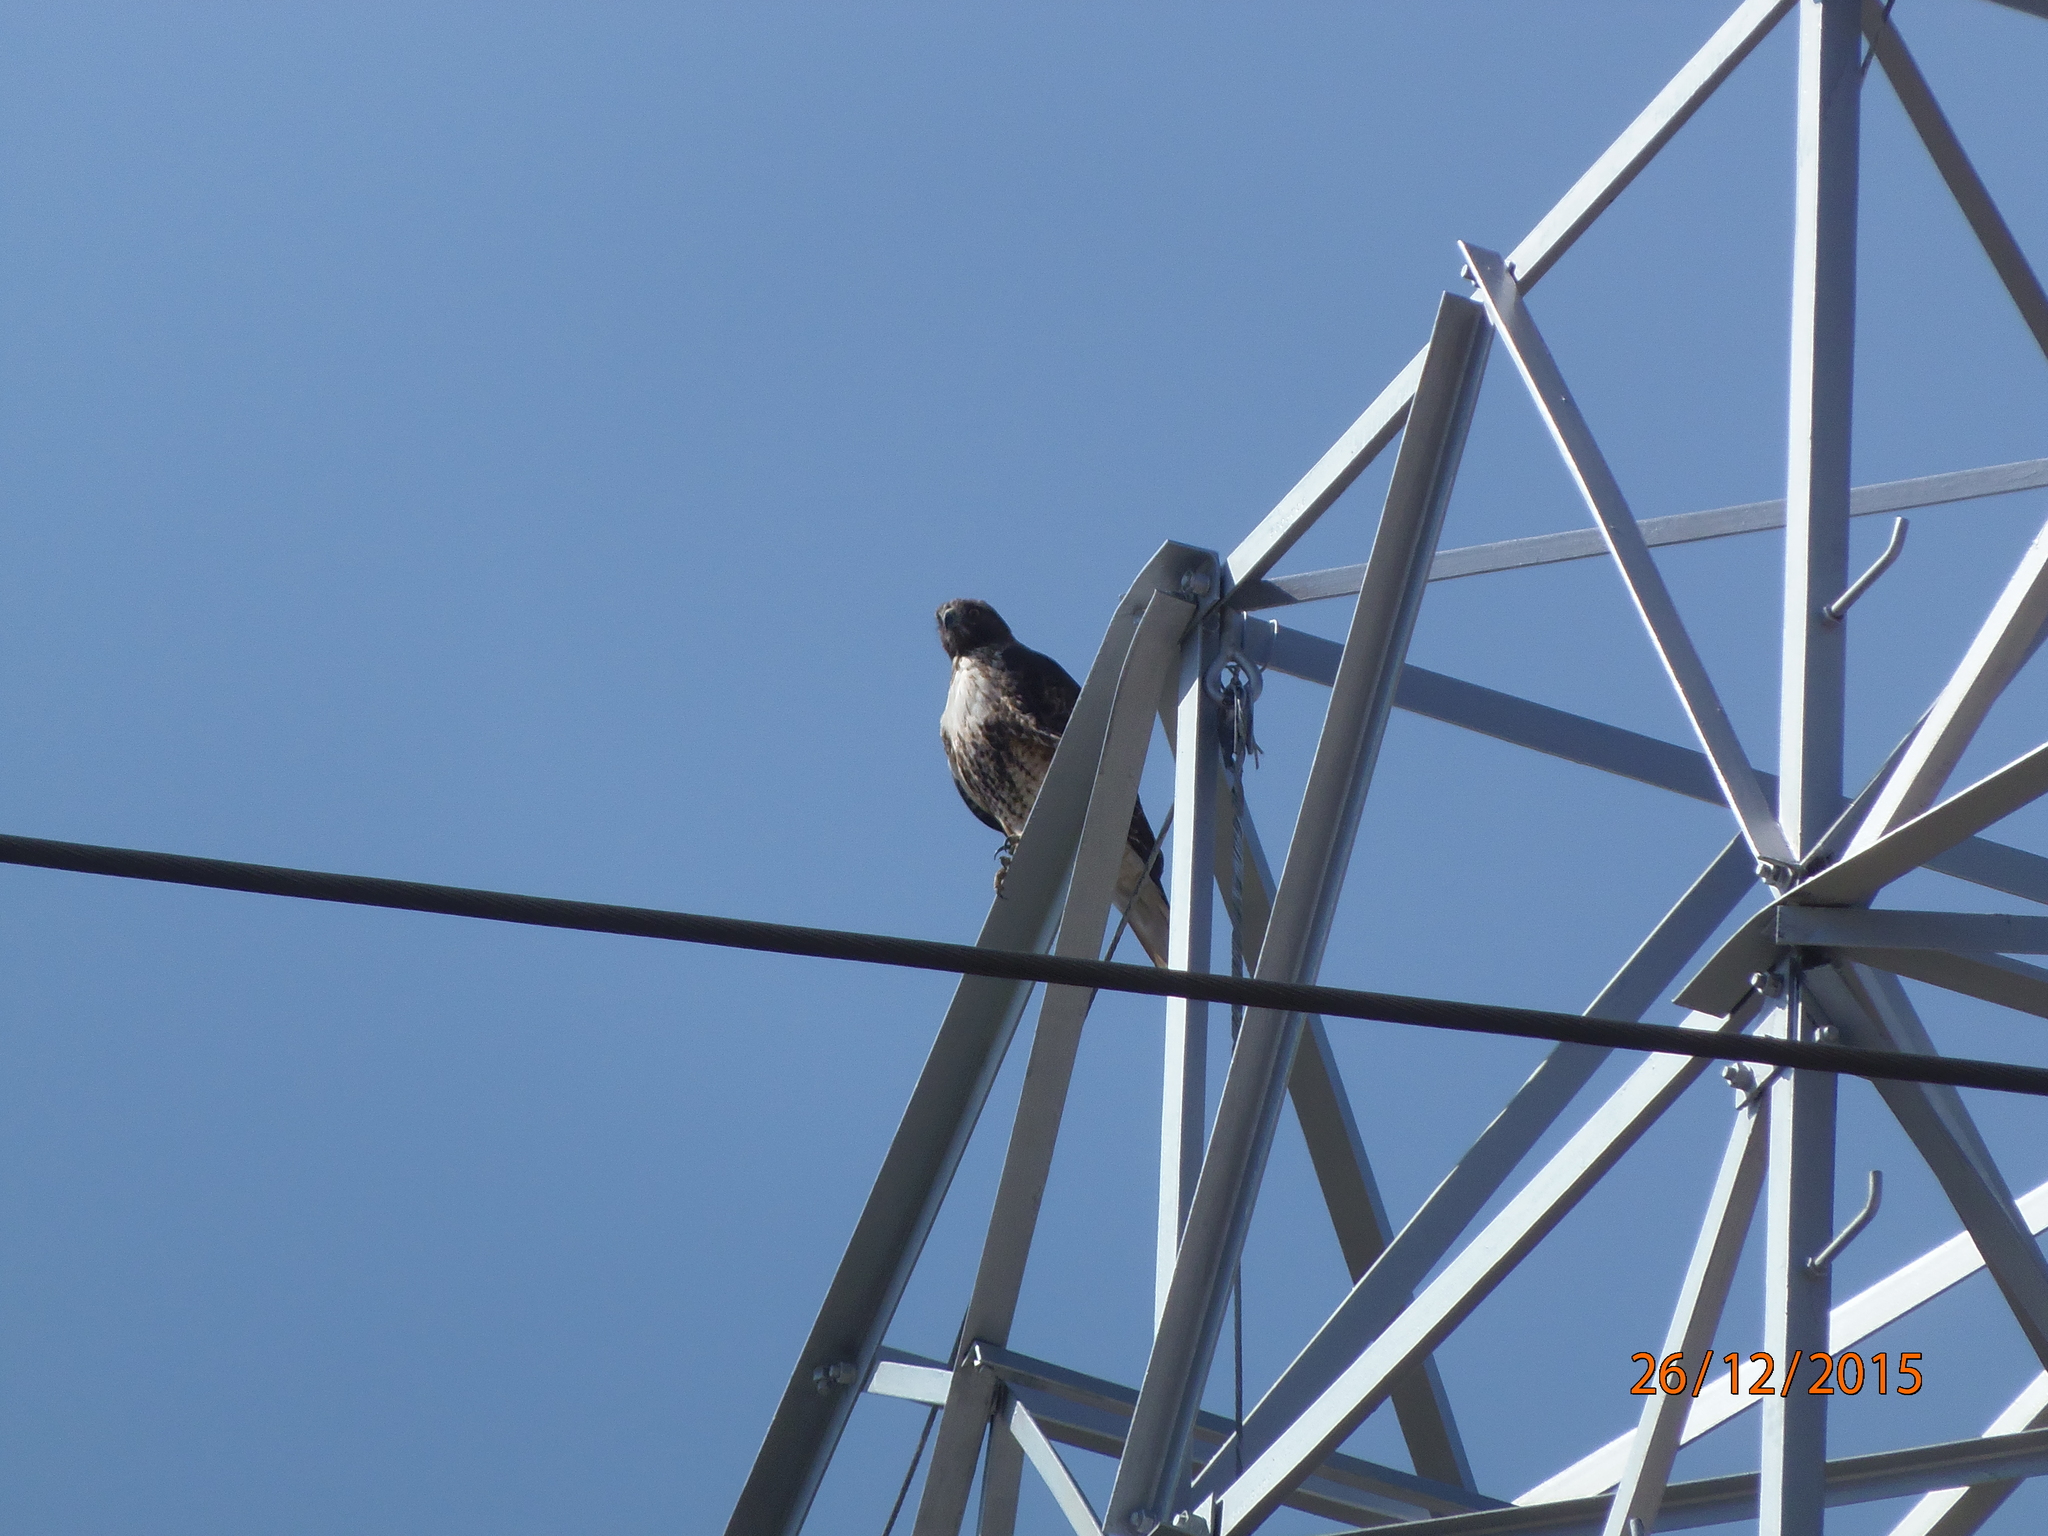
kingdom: Animalia
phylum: Chordata
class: Aves
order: Accipitriformes
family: Accipitridae
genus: Buteo
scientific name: Buteo jamaicensis
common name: Red-tailed hawk
